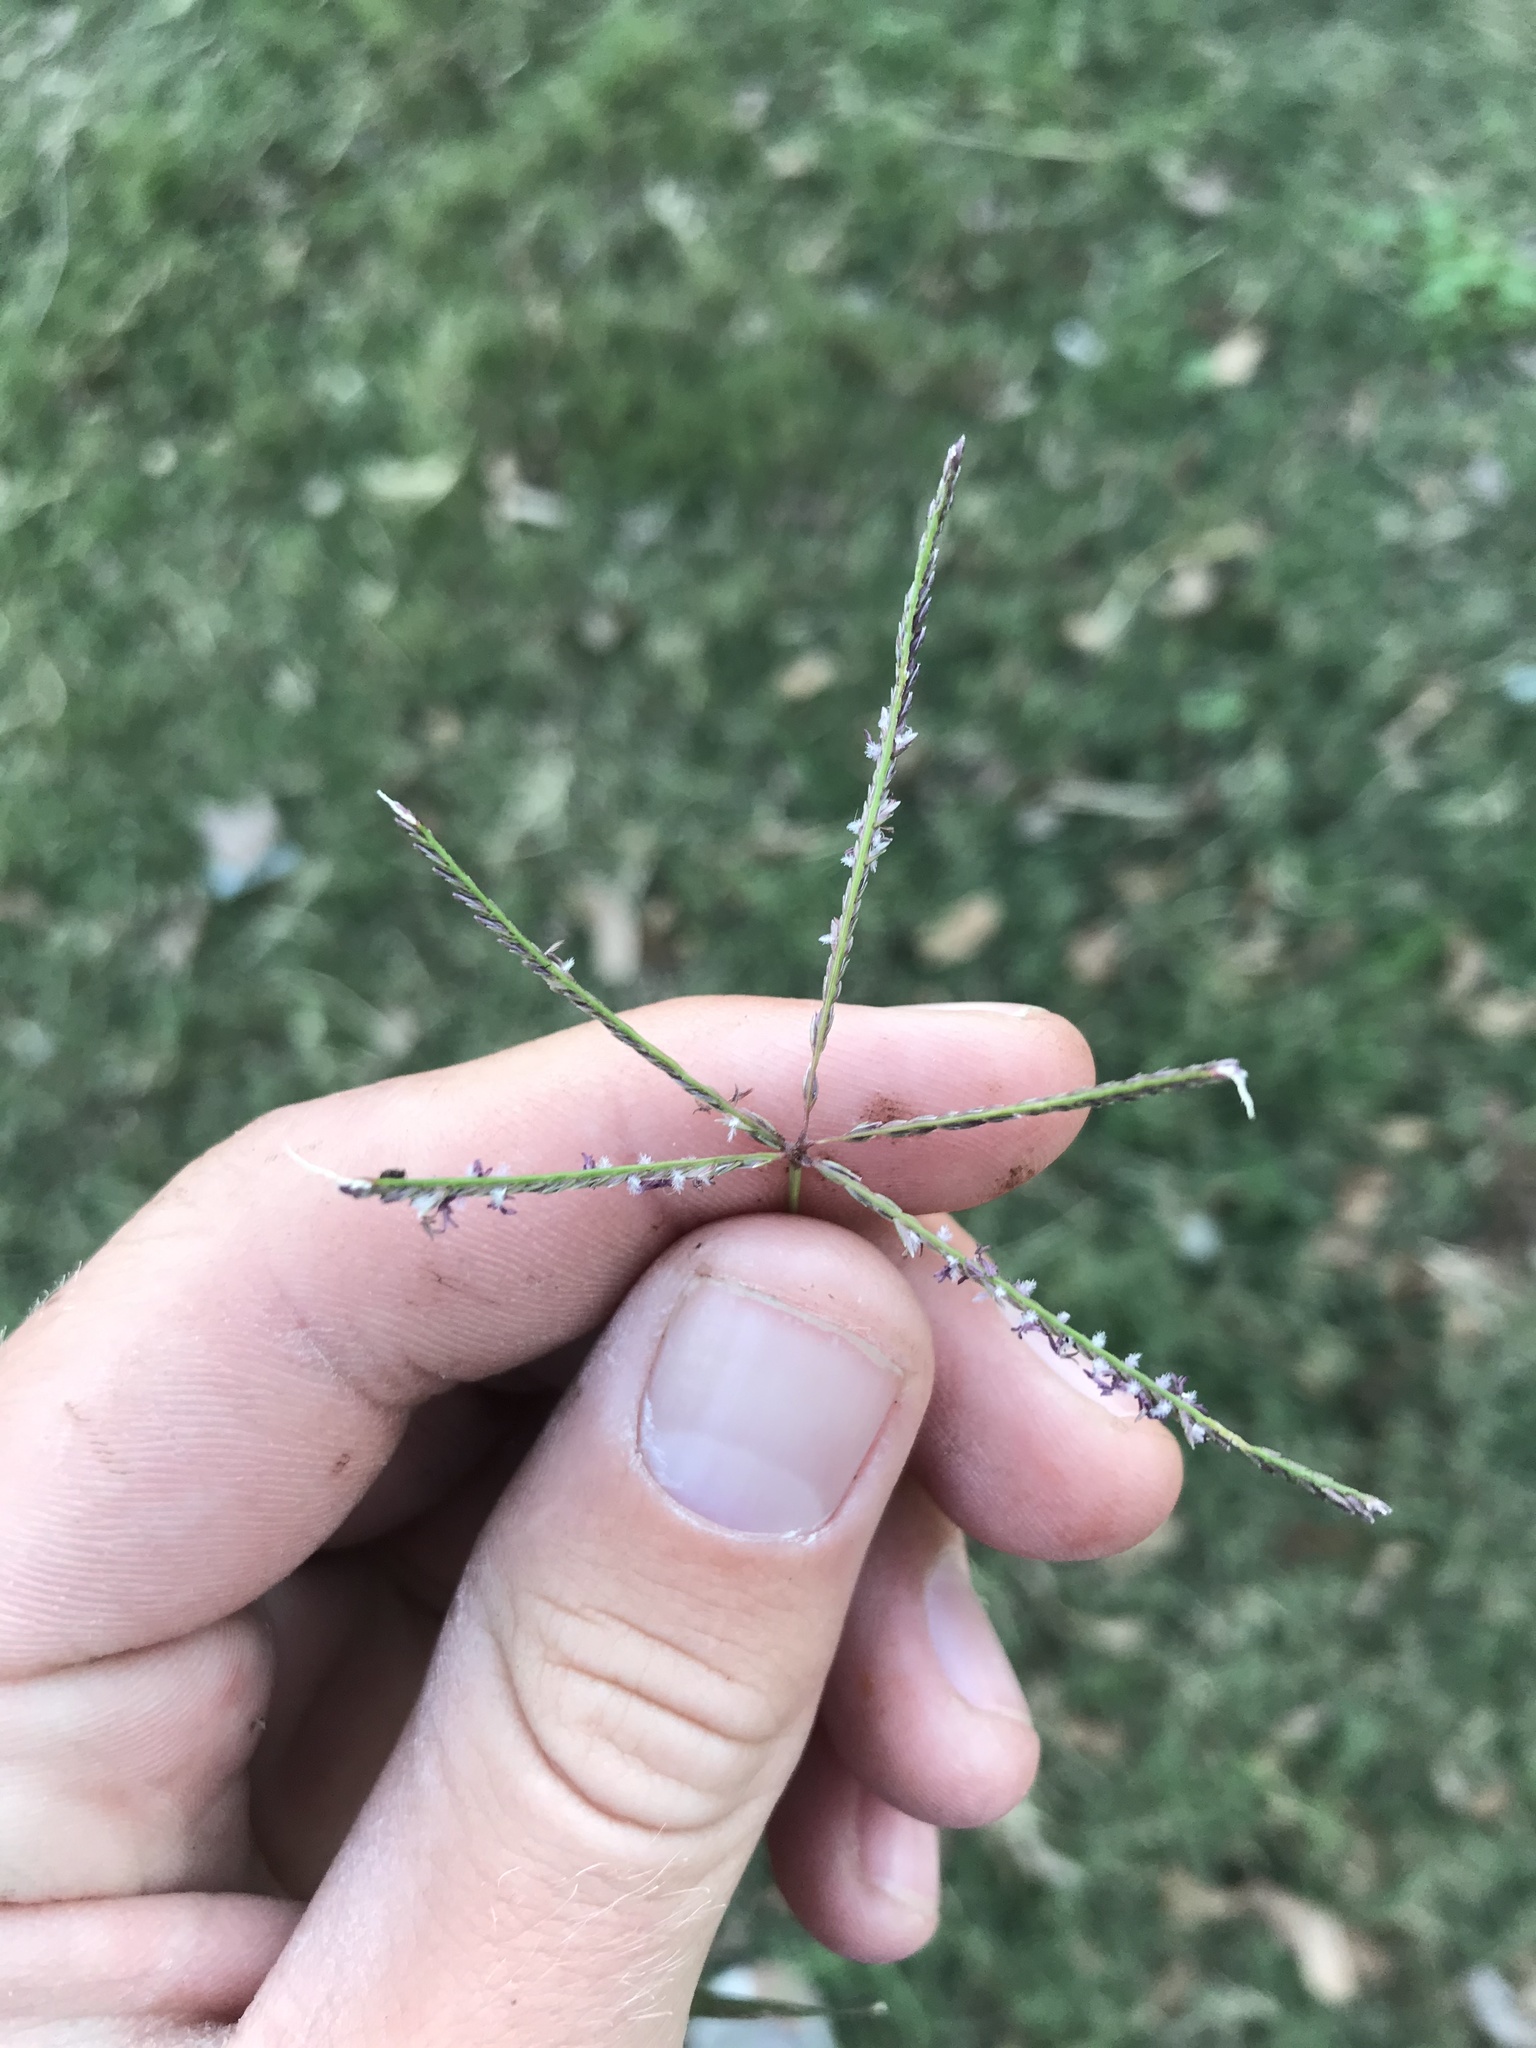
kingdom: Plantae
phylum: Tracheophyta
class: Liliopsida
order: Poales
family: Poaceae
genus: Cynodon
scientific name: Cynodon dactylon
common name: Bermuda grass
